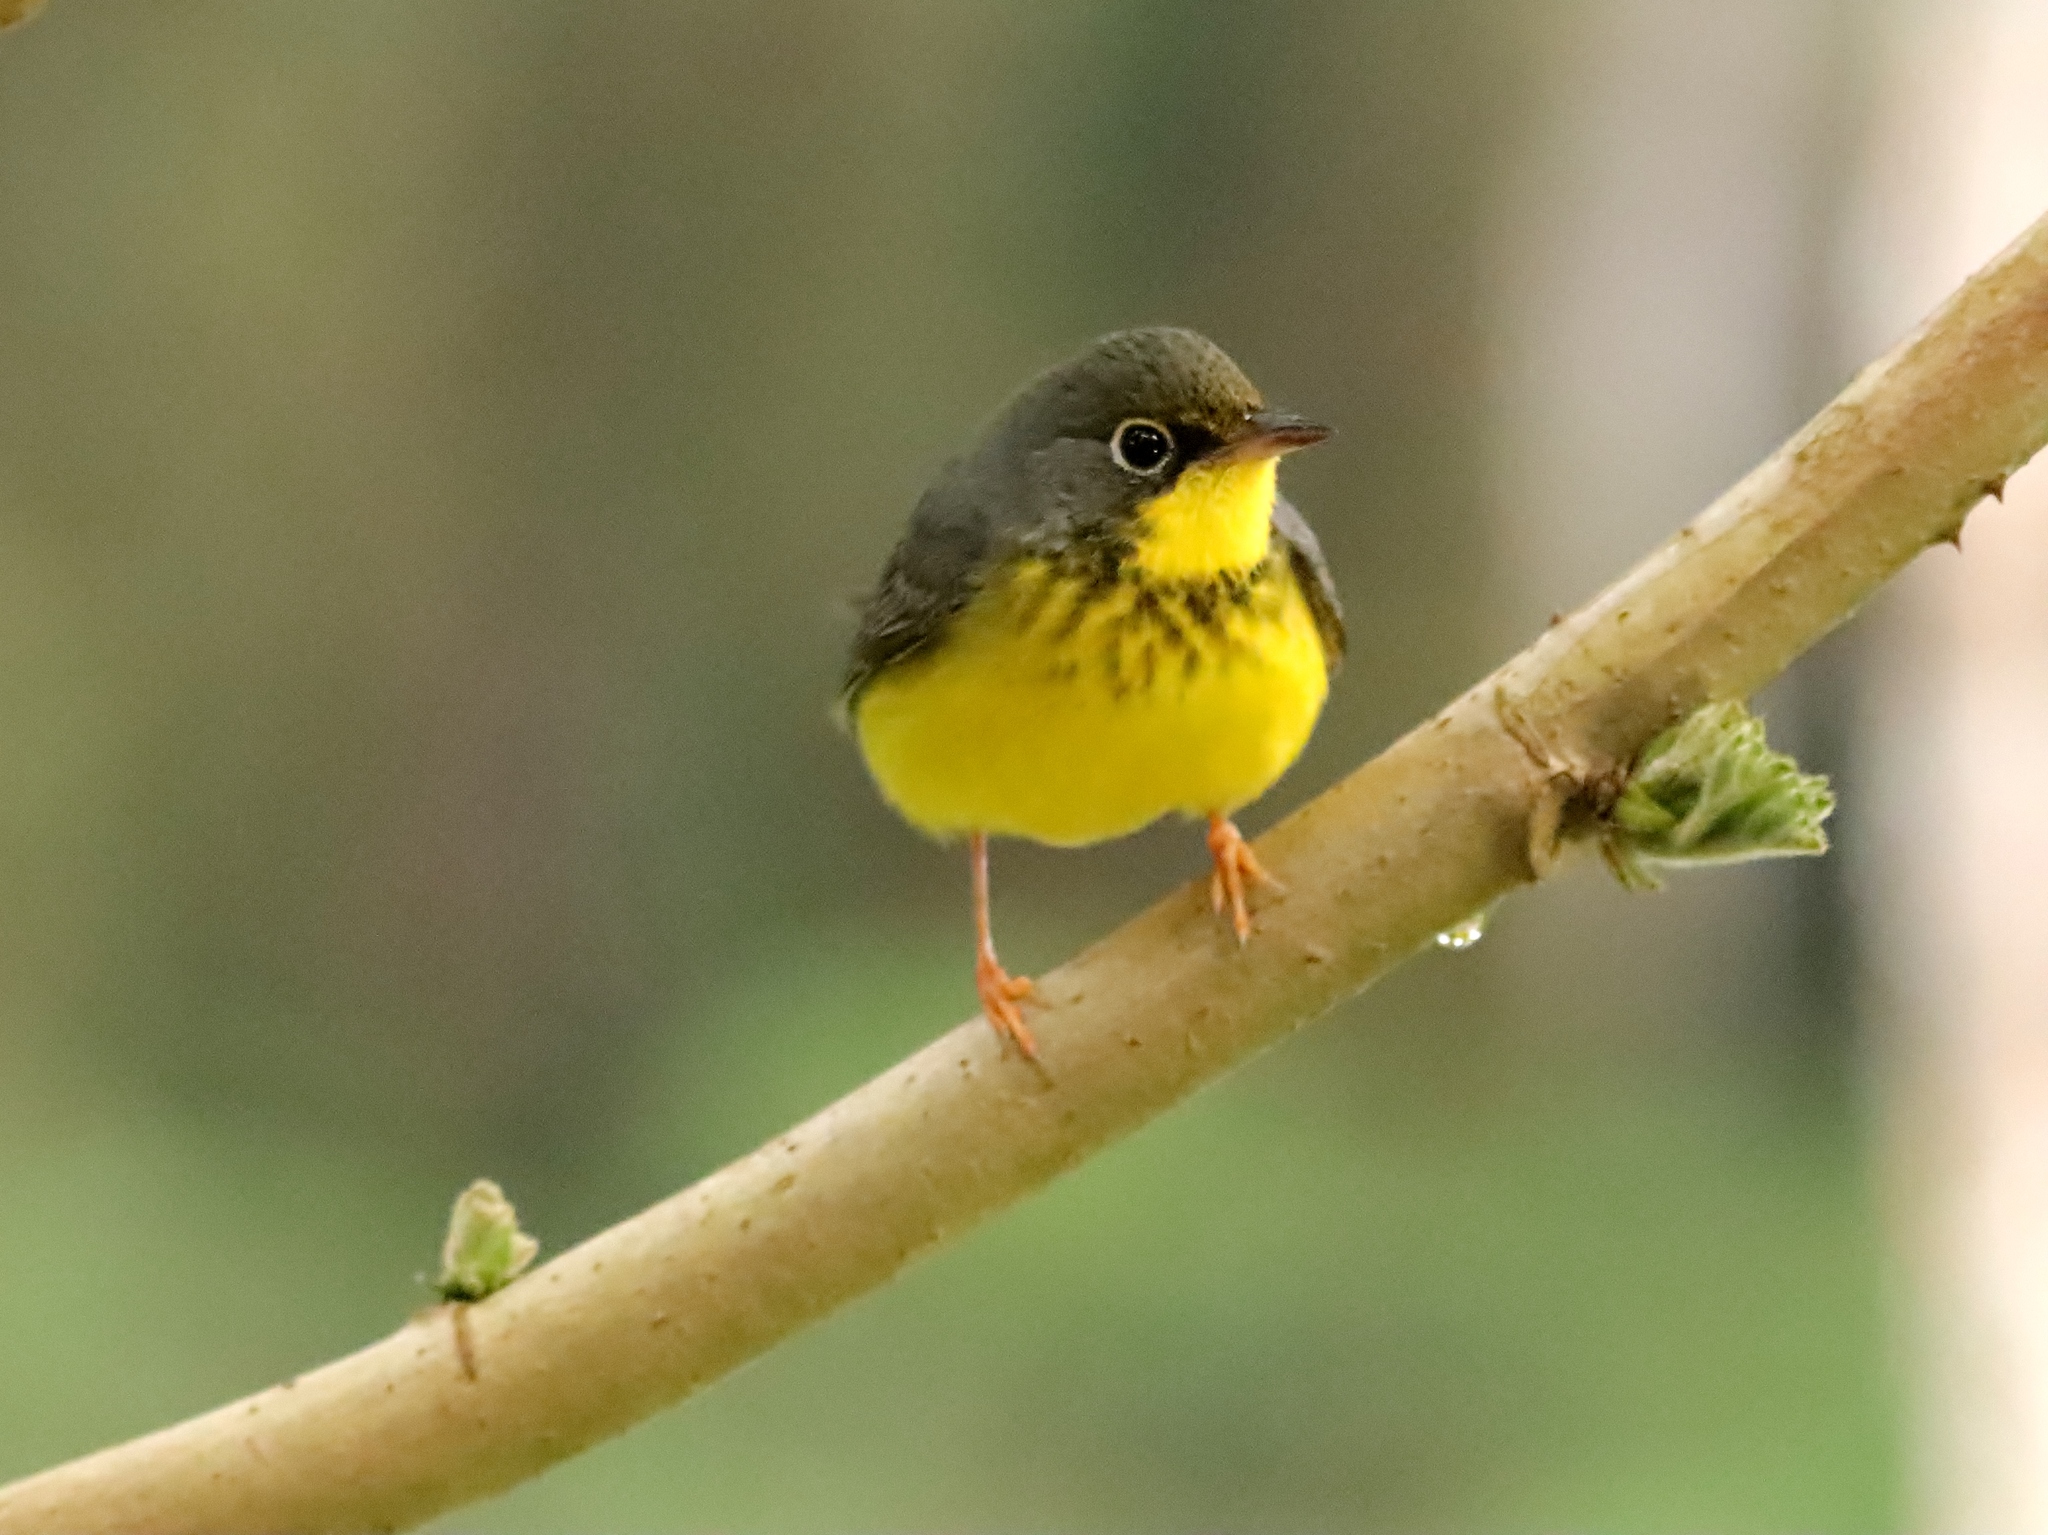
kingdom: Animalia
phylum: Chordata
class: Aves
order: Passeriformes
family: Parulidae
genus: Cardellina
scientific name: Cardellina canadensis
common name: Canada warbler
